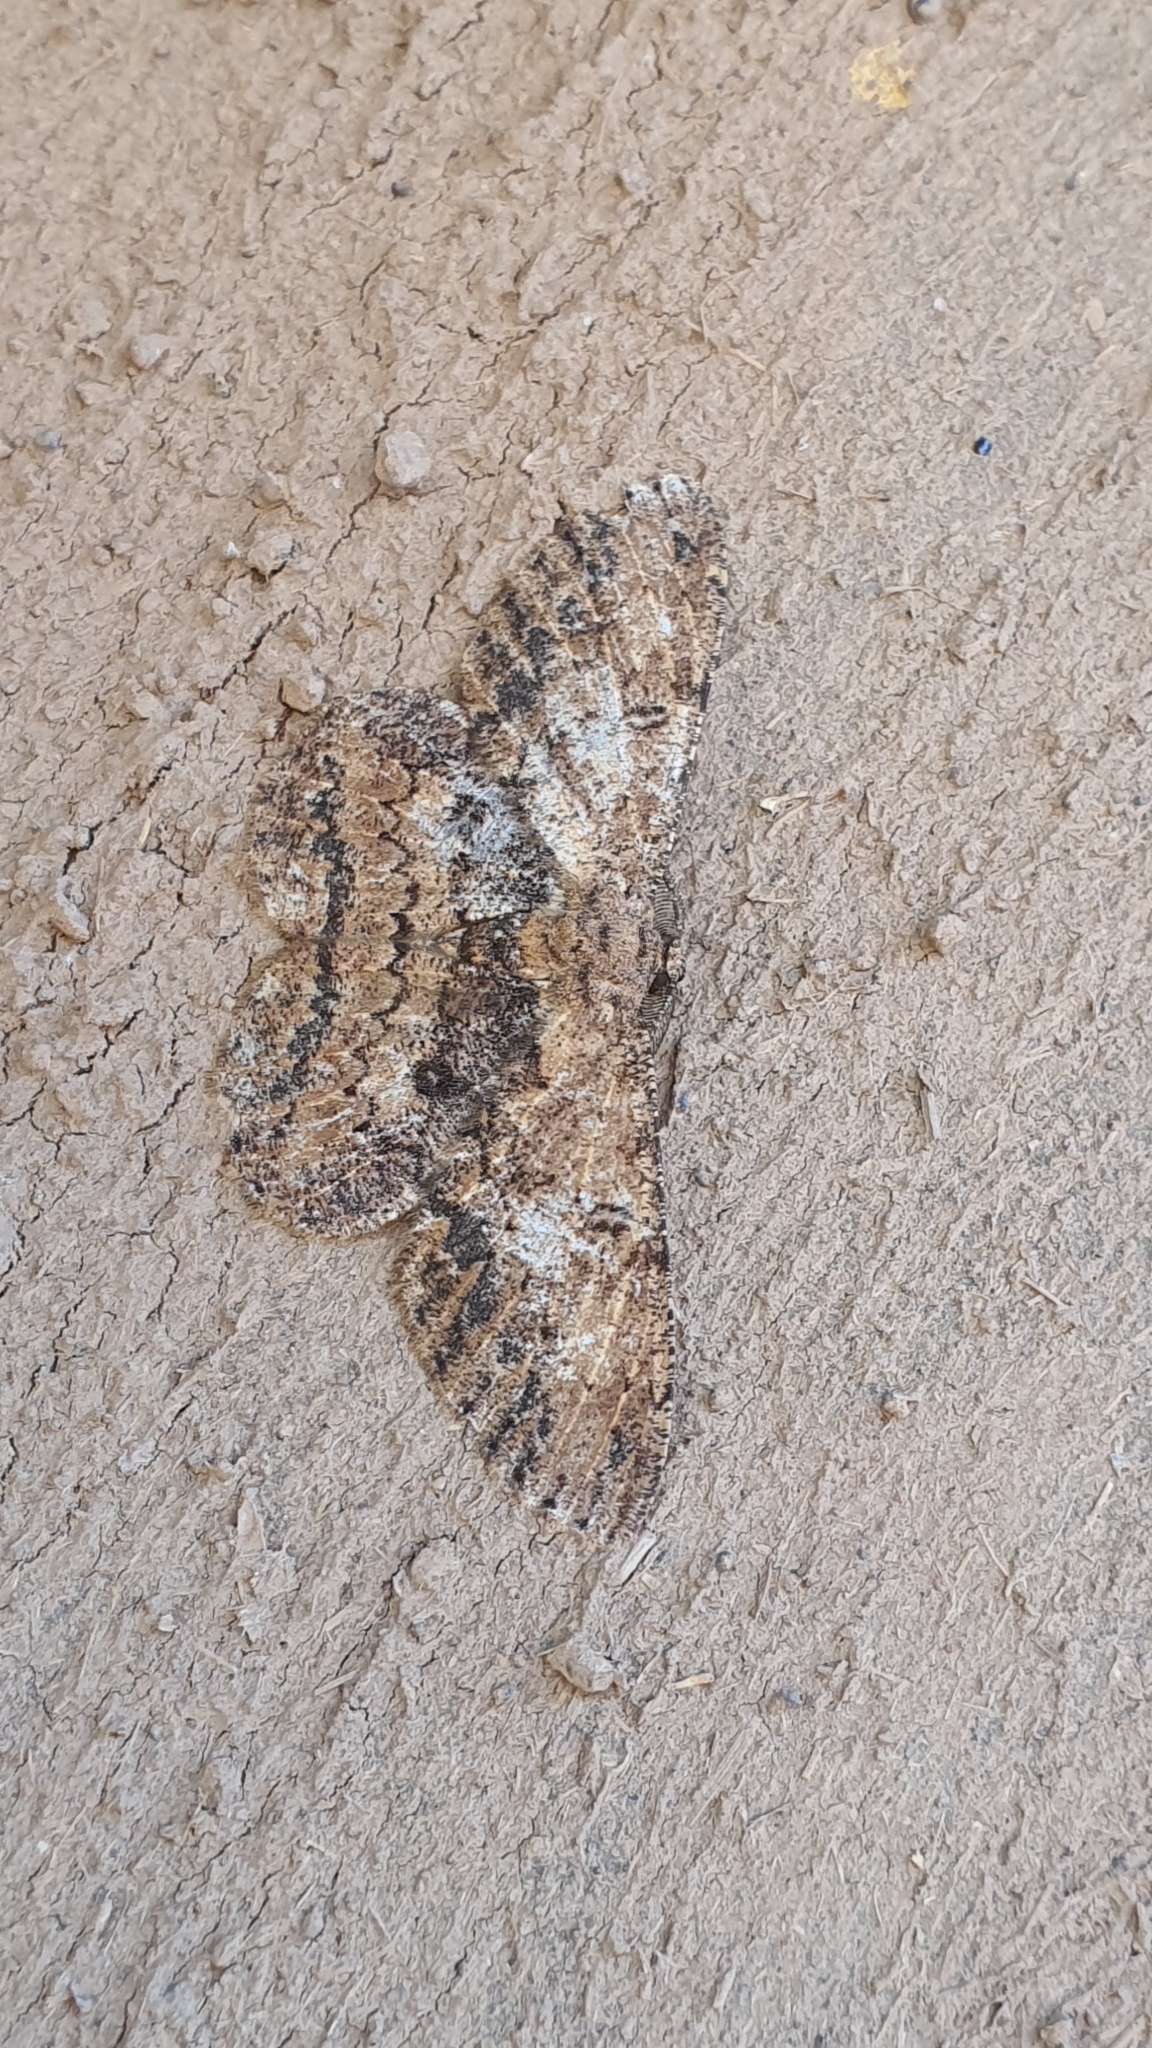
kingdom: Animalia
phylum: Arthropoda
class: Insecta
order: Lepidoptera
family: Geometridae
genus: Hypomecis
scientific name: Hypomecis separata
